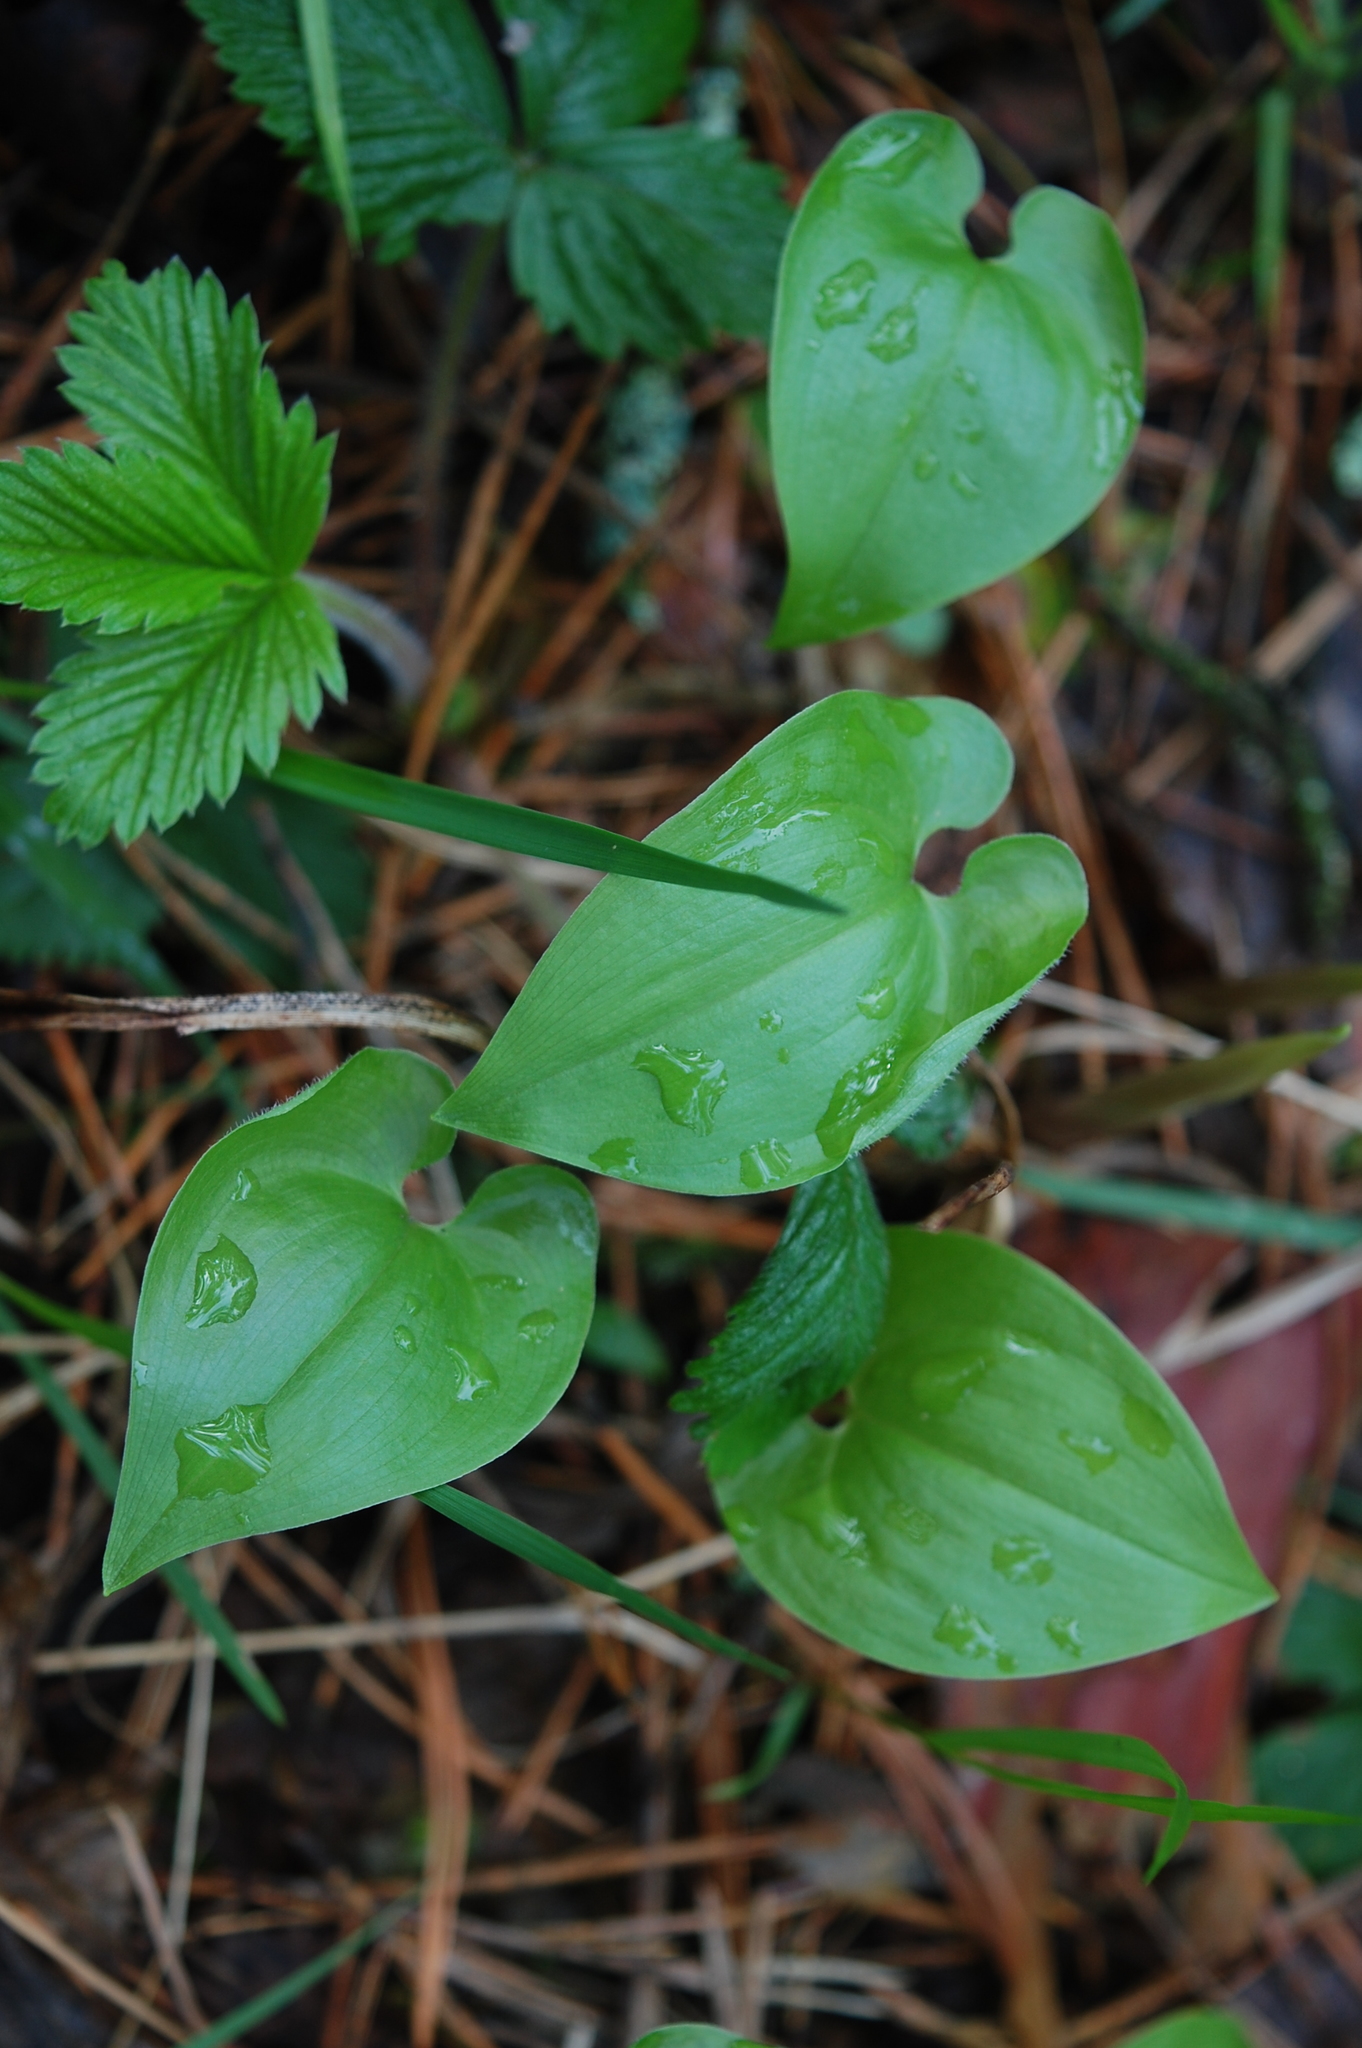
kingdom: Plantae
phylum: Tracheophyta
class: Liliopsida
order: Asparagales
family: Asparagaceae
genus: Maianthemum
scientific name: Maianthemum bifolium
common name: May lily
